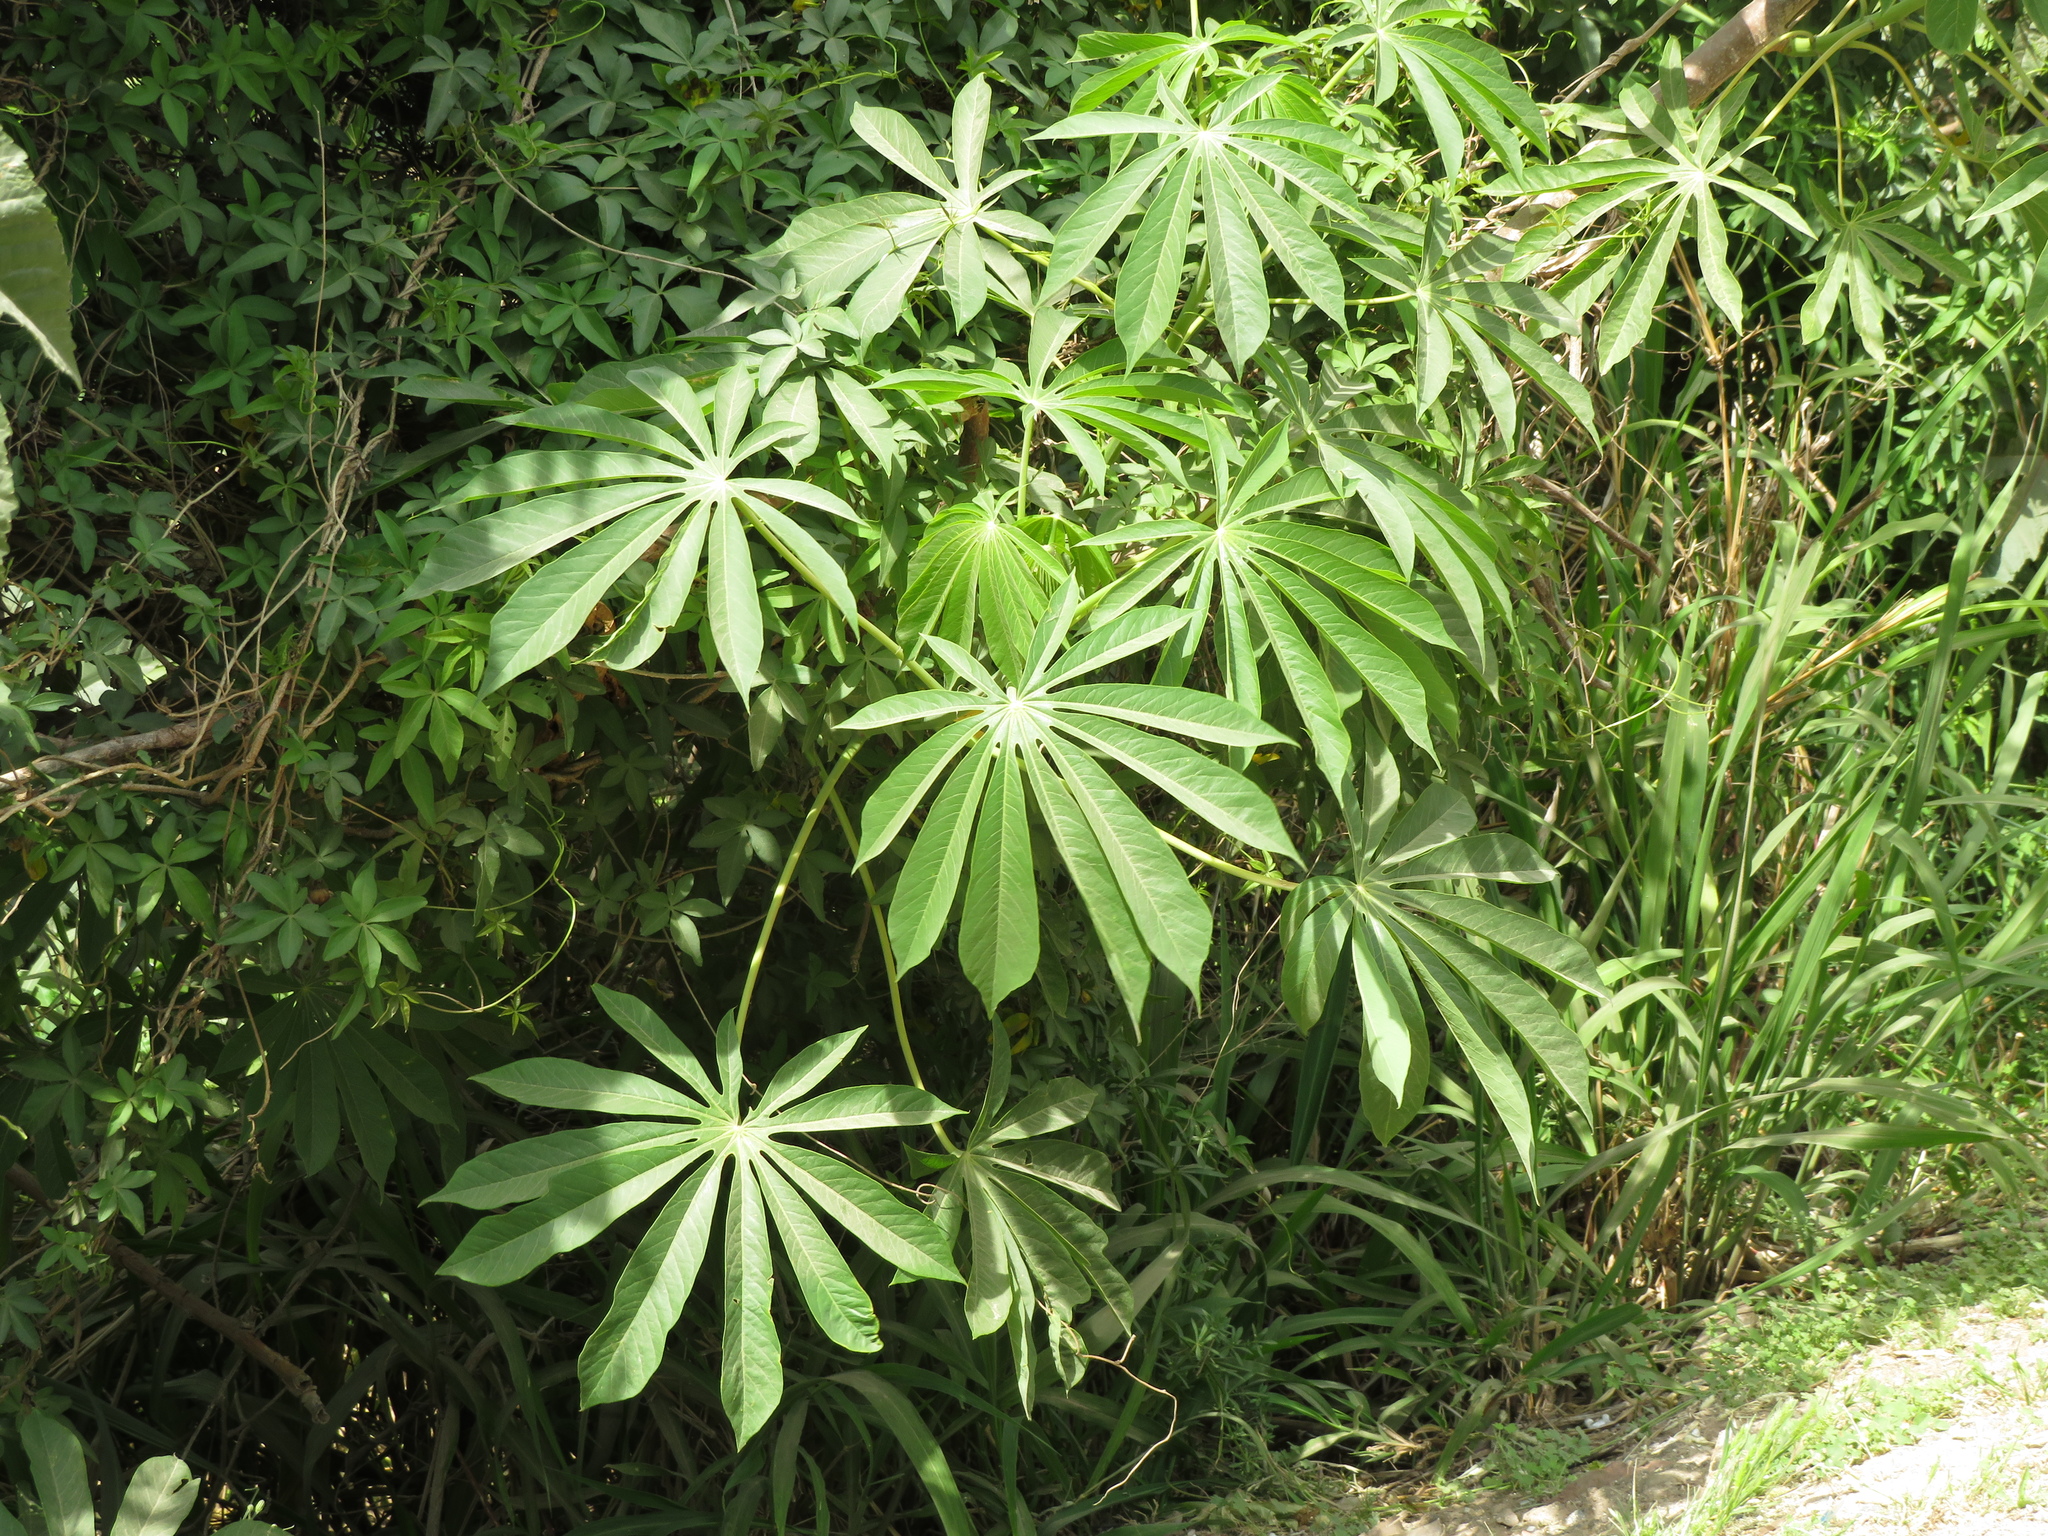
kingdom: Plantae
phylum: Tracheophyta
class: Magnoliopsida
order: Malpighiales
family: Euphorbiaceae
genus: Manihot
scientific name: Manihot grahamii
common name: Graham's manihot
